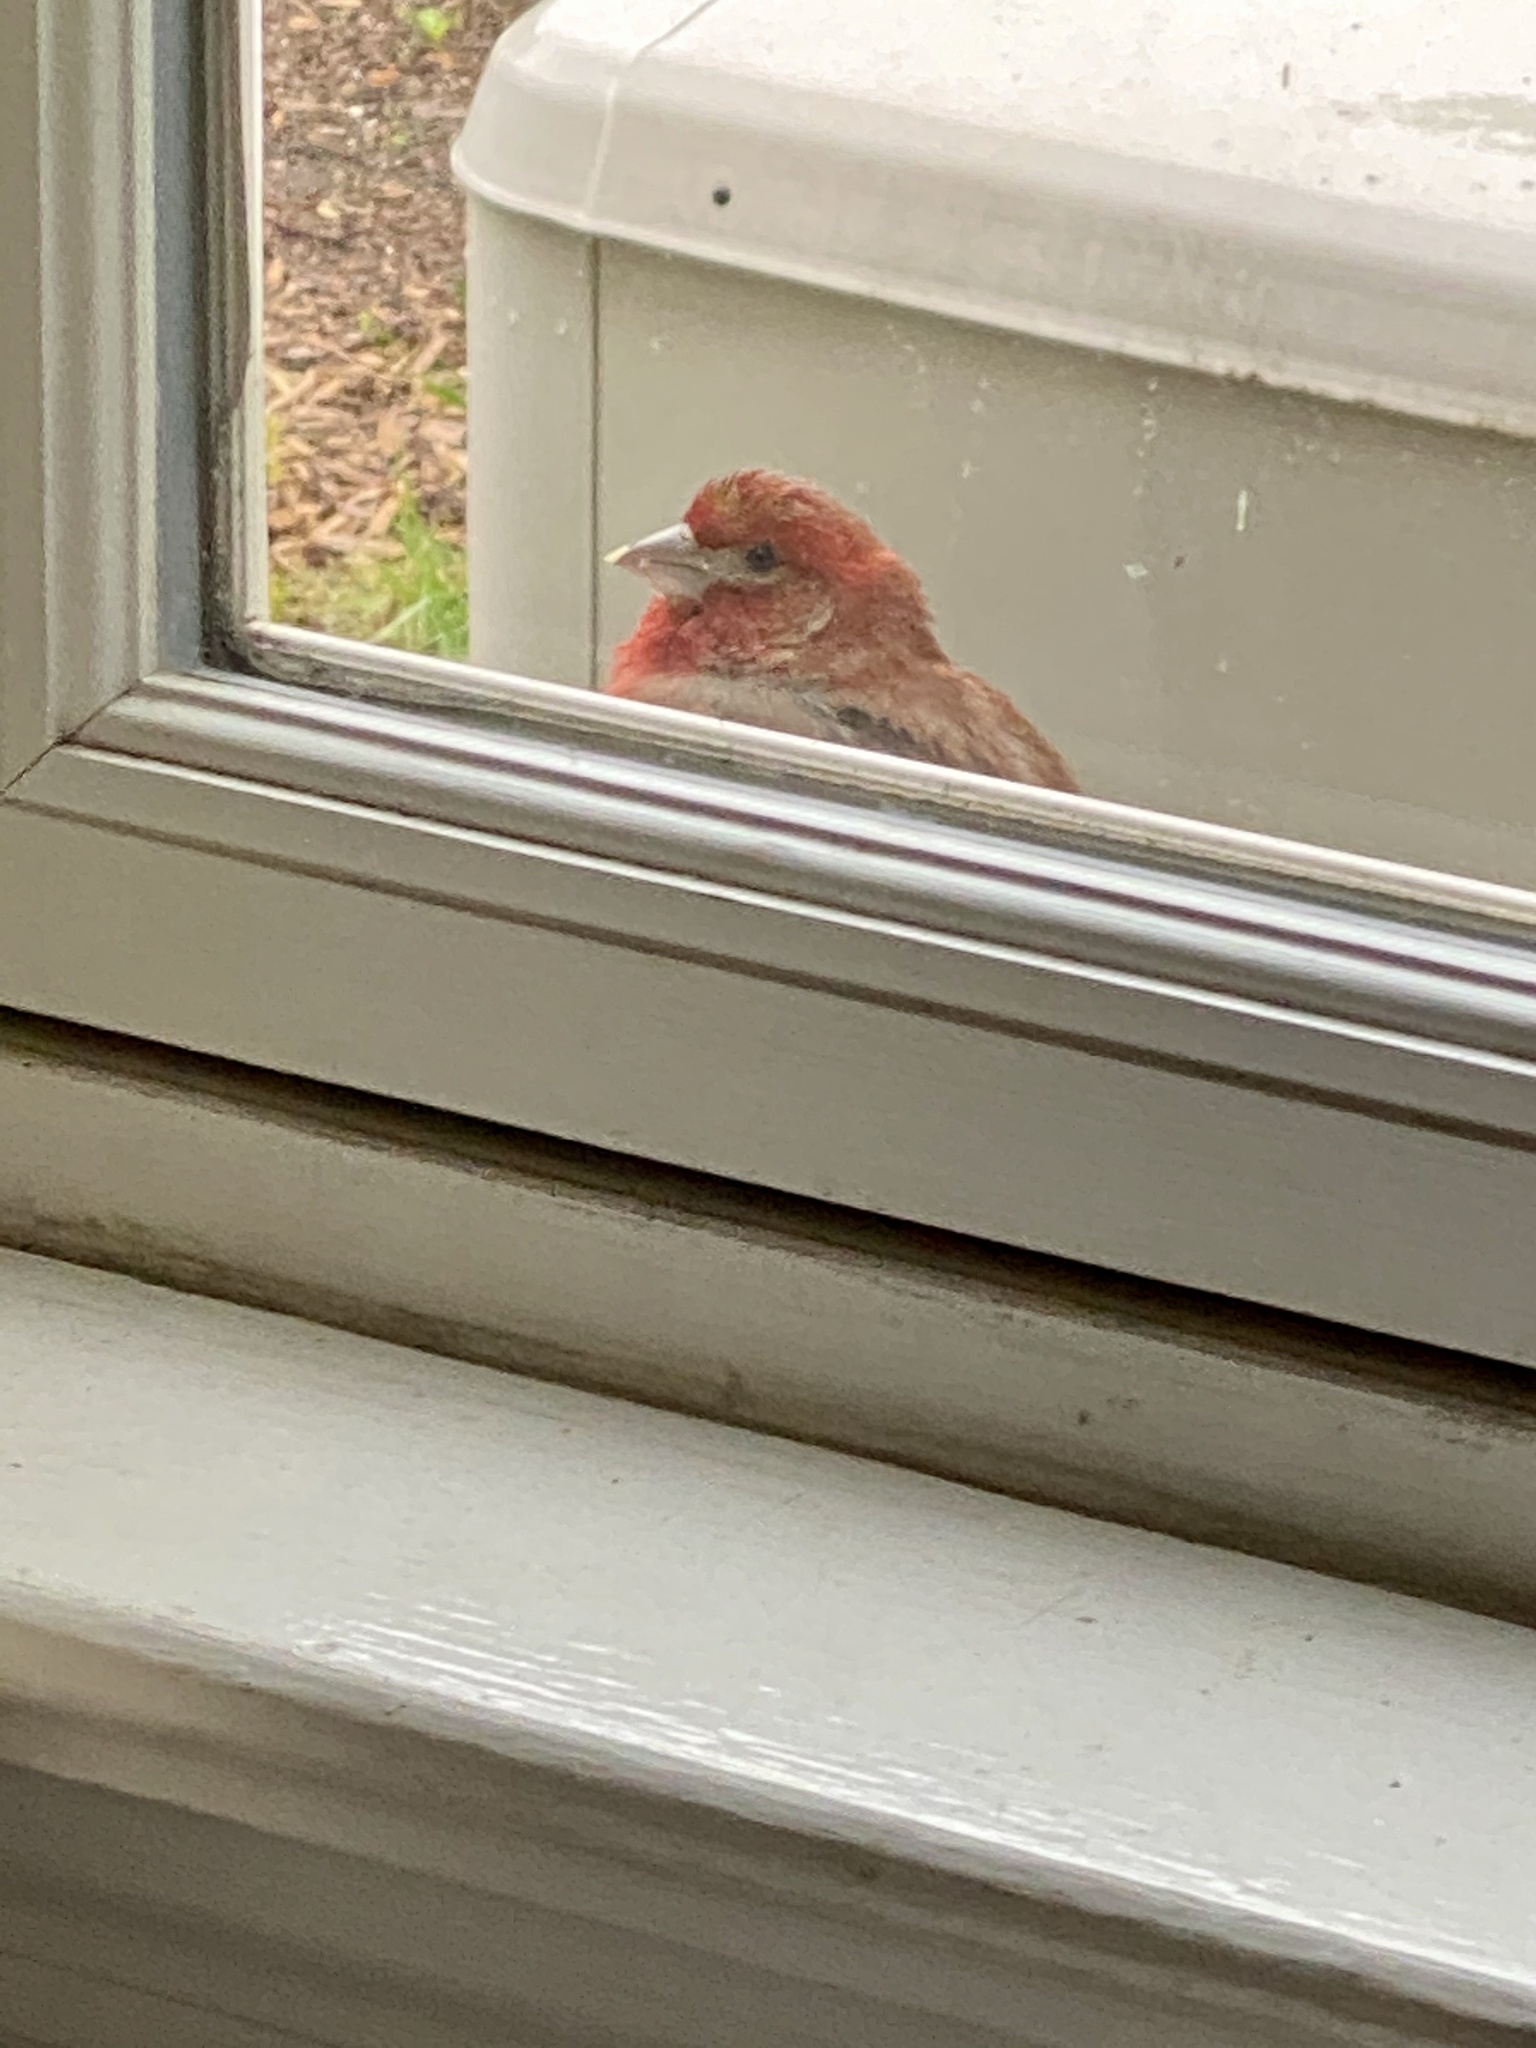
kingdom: Animalia
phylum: Chordata
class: Aves
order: Passeriformes
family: Fringillidae
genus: Haemorhous
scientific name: Haemorhous mexicanus
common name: House finch
